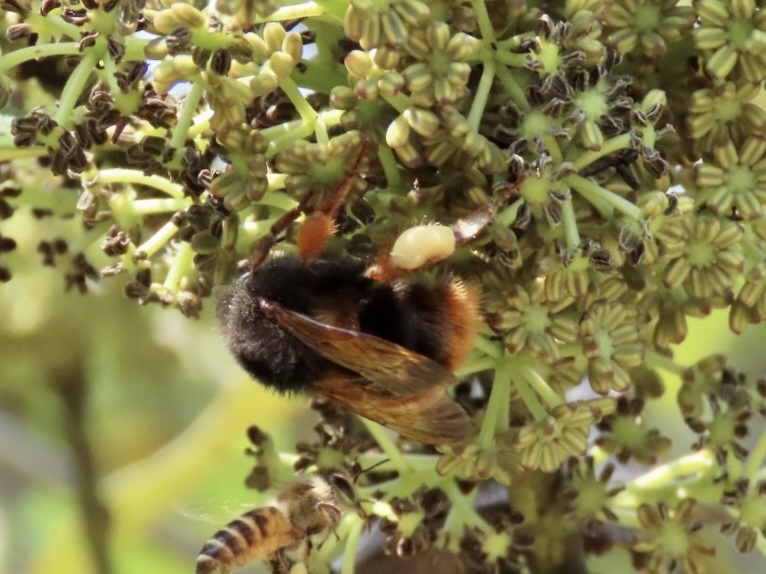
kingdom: Animalia
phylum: Arthropoda
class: Insecta
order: Hymenoptera
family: Apidae
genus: Bombus
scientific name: Bombus eximius
